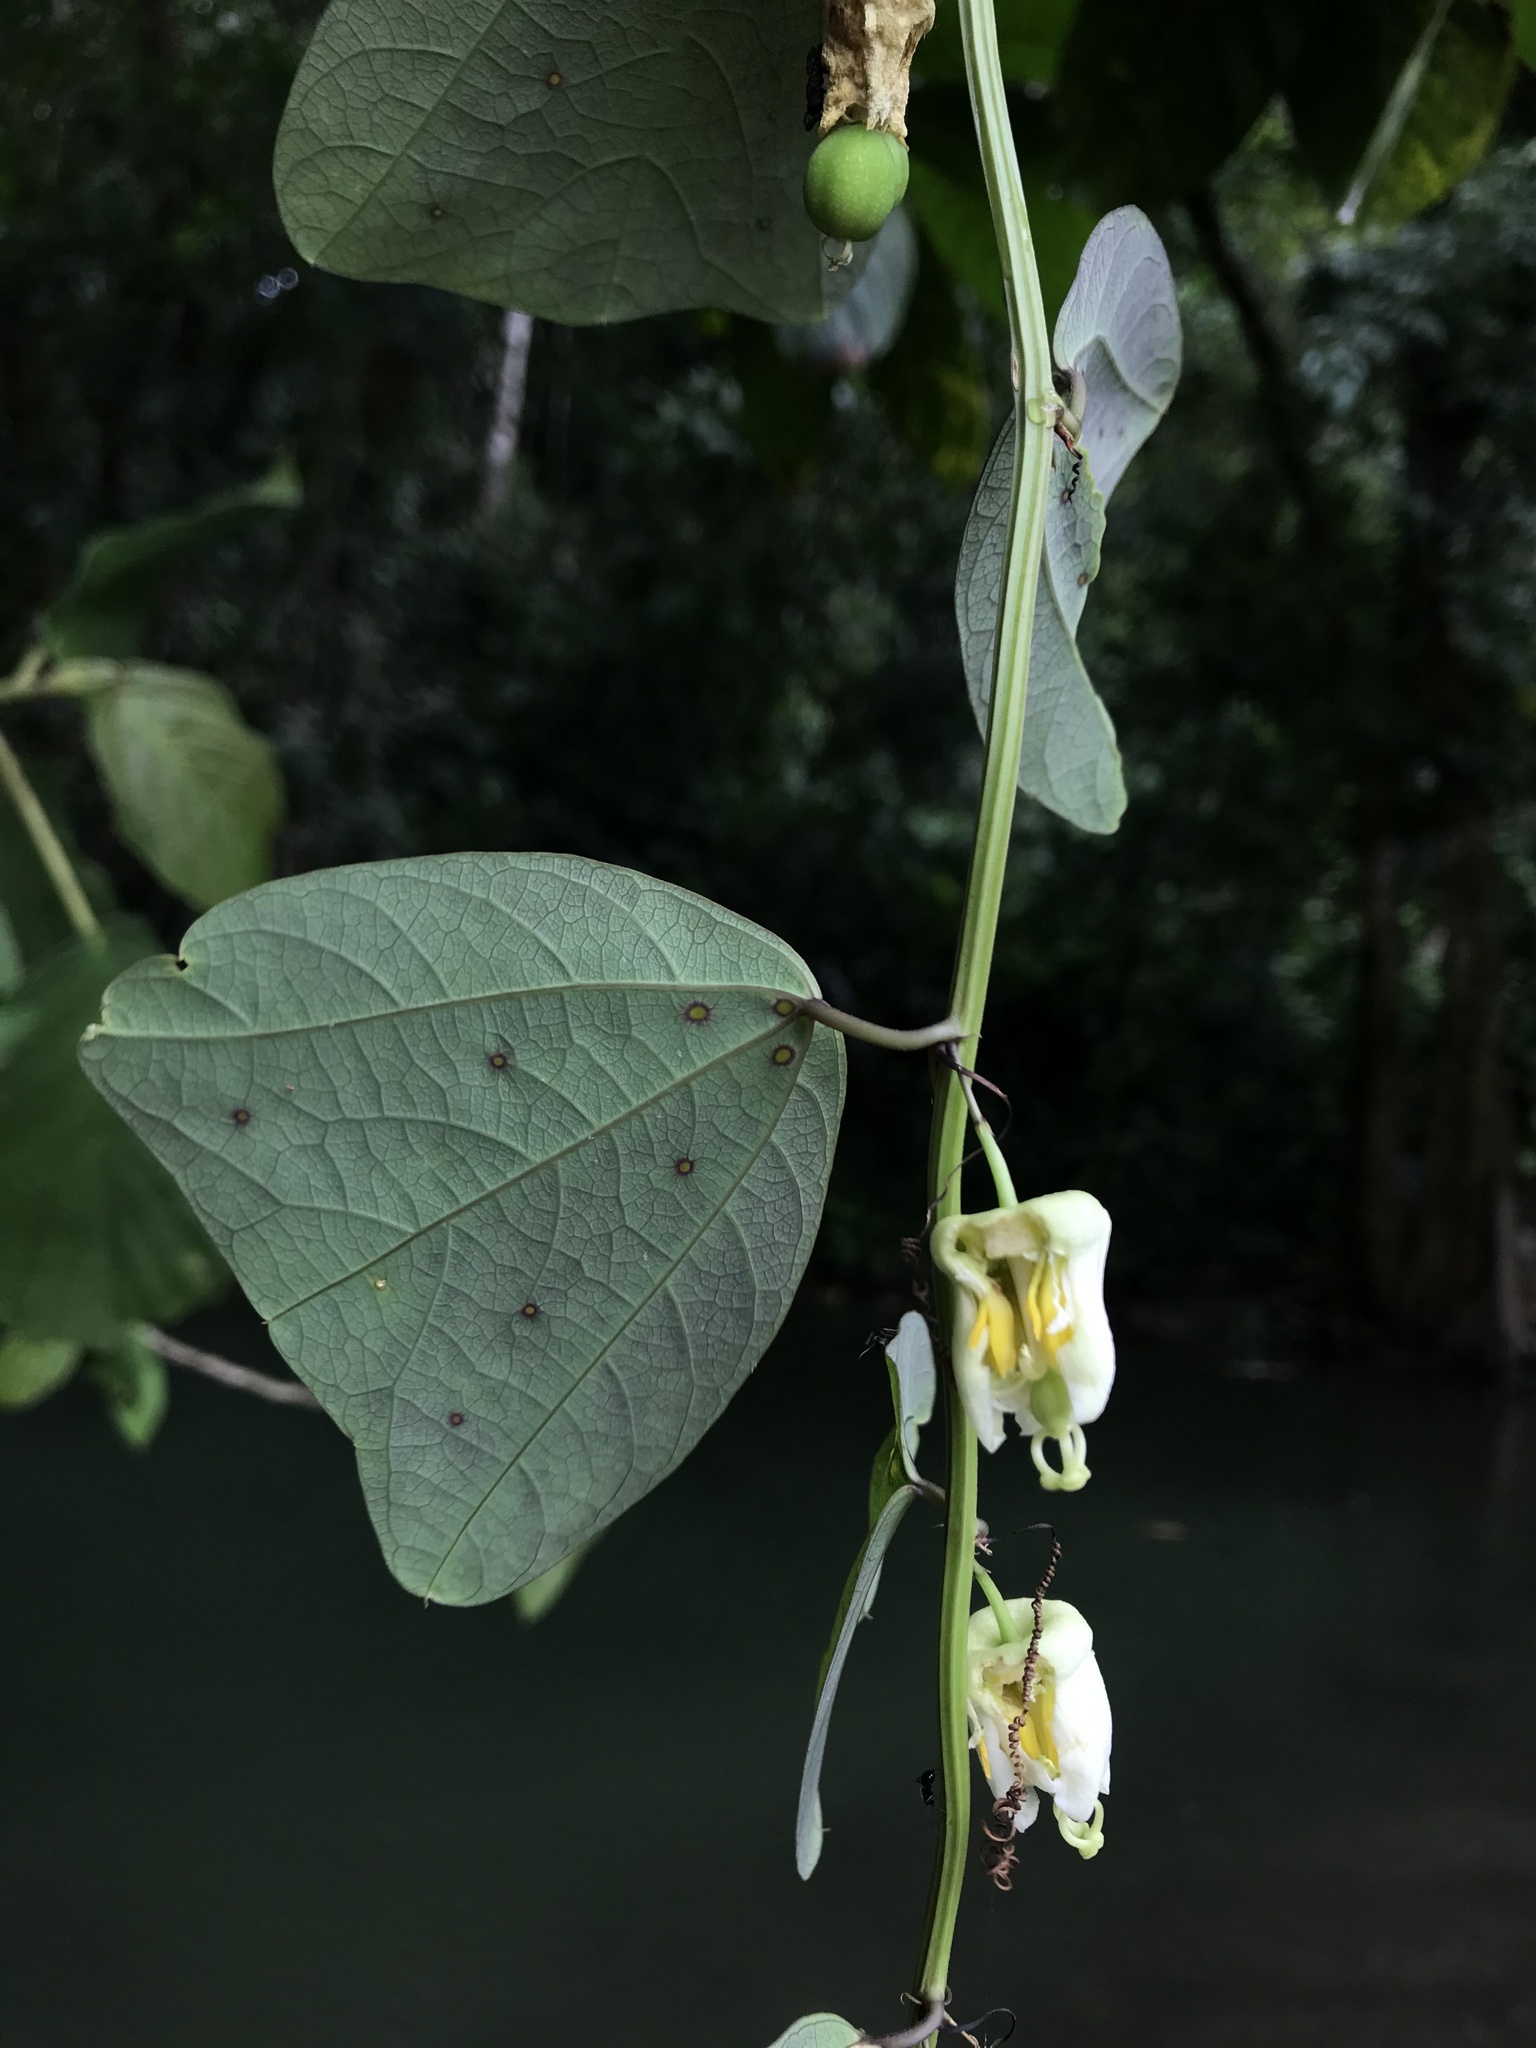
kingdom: Plantae
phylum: Tracheophyta
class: Magnoliopsida
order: Malpighiales
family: Passifloraceae
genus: Passiflora
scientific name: Passiflora biflora
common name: Twoflower passionflower
